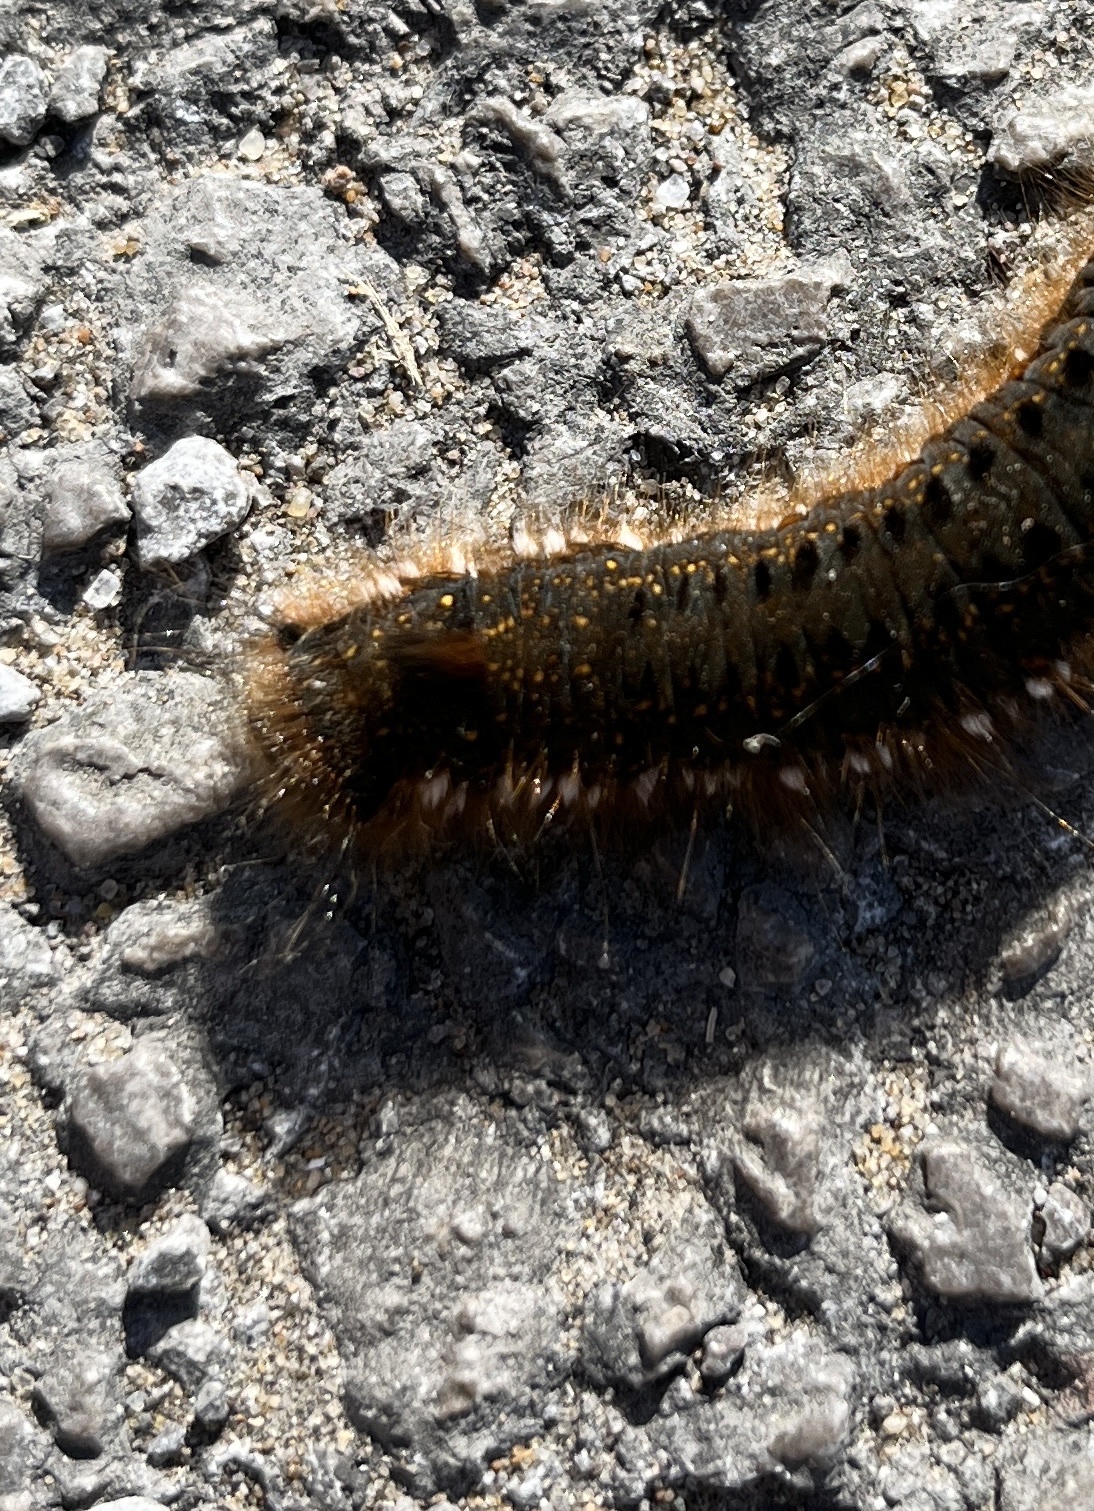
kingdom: Animalia
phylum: Arthropoda
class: Insecta
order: Lepidoptera
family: Lasiocampidae
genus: Euthrix
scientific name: Euthrix potatoria
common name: Drinker
